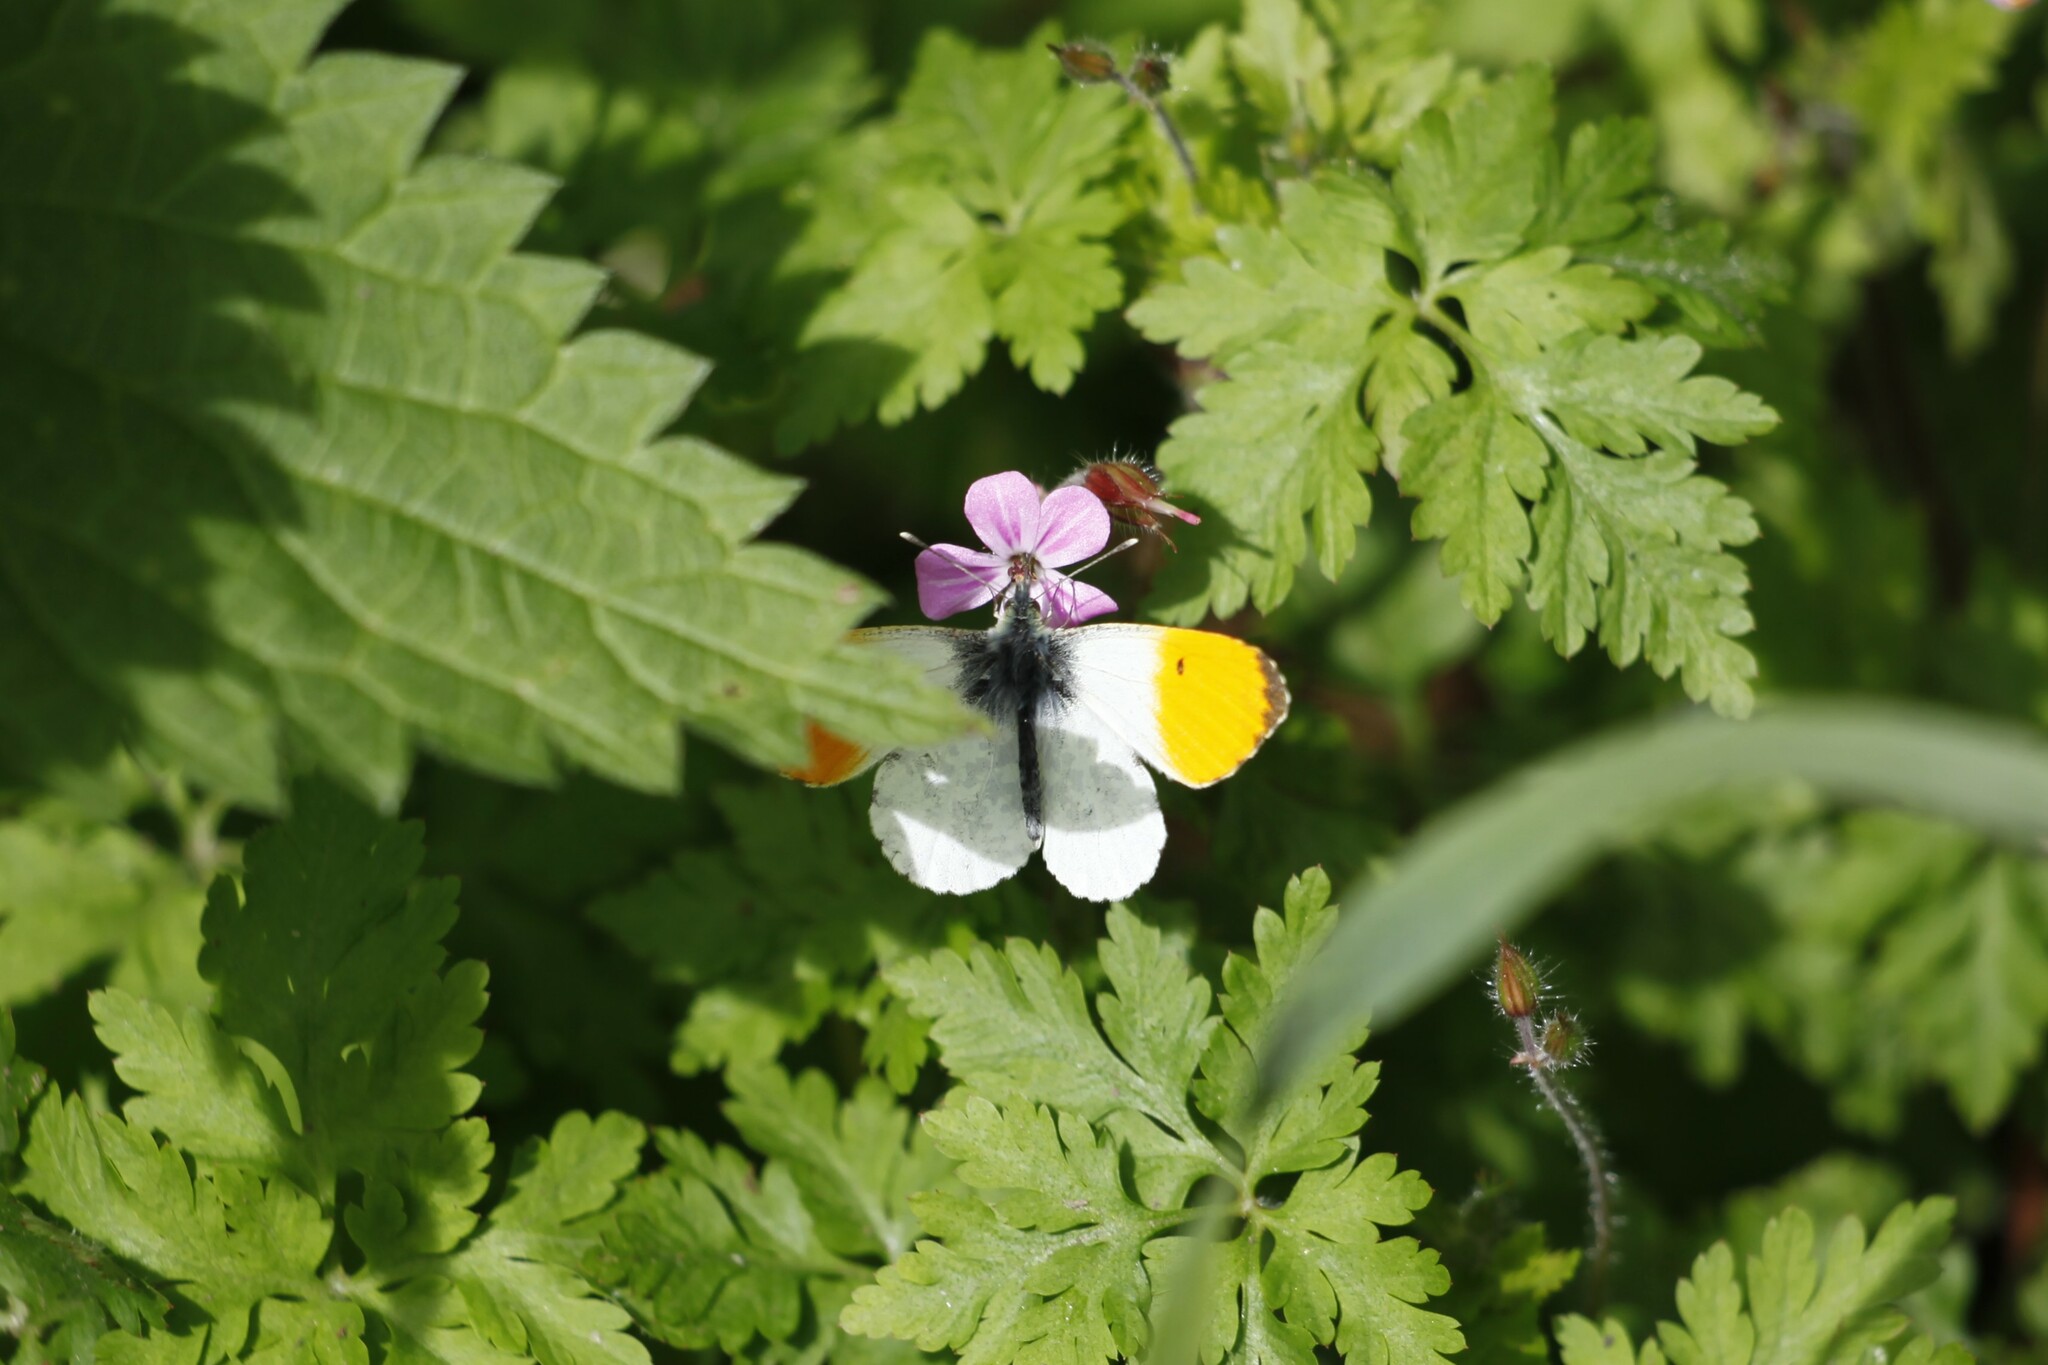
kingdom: Animalia
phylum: Arthropoda
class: Insecta
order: Lepidoptera
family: Pieridae
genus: Anthocharis
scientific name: Anthocharis cardamines
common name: Orange-tip
